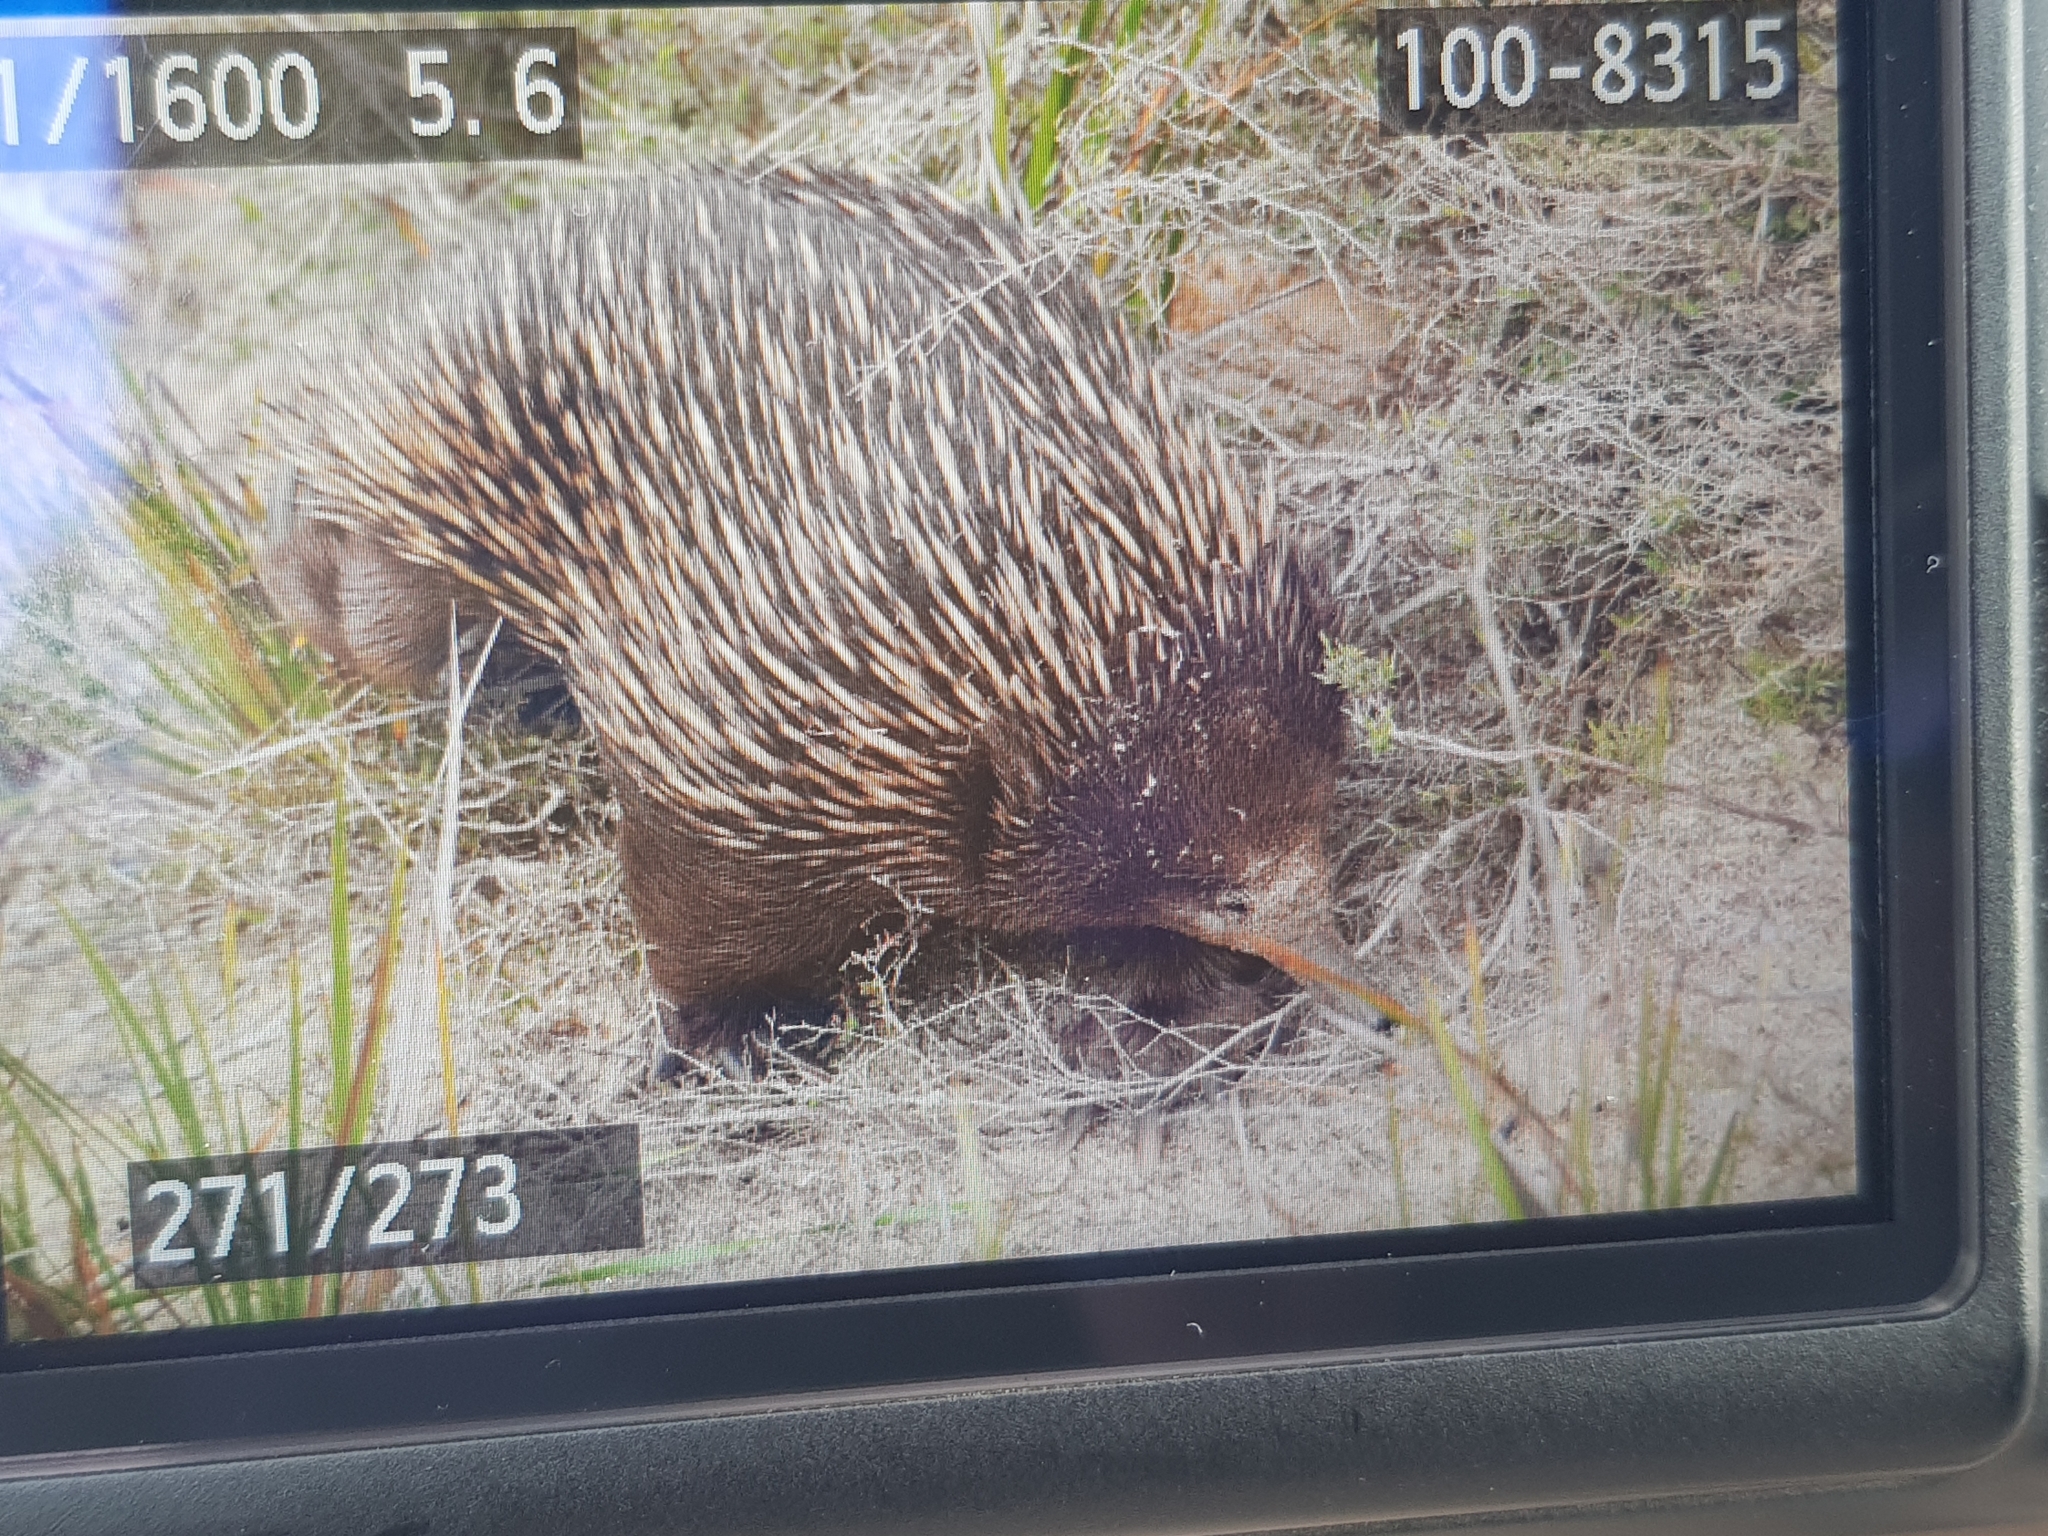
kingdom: Animalia
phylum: Chordata
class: Mammalia
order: Monotremata
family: Tachyglossidae
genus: Tachyglossus
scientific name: Tachyglossus aculeatus
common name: Short-beaked echidna
